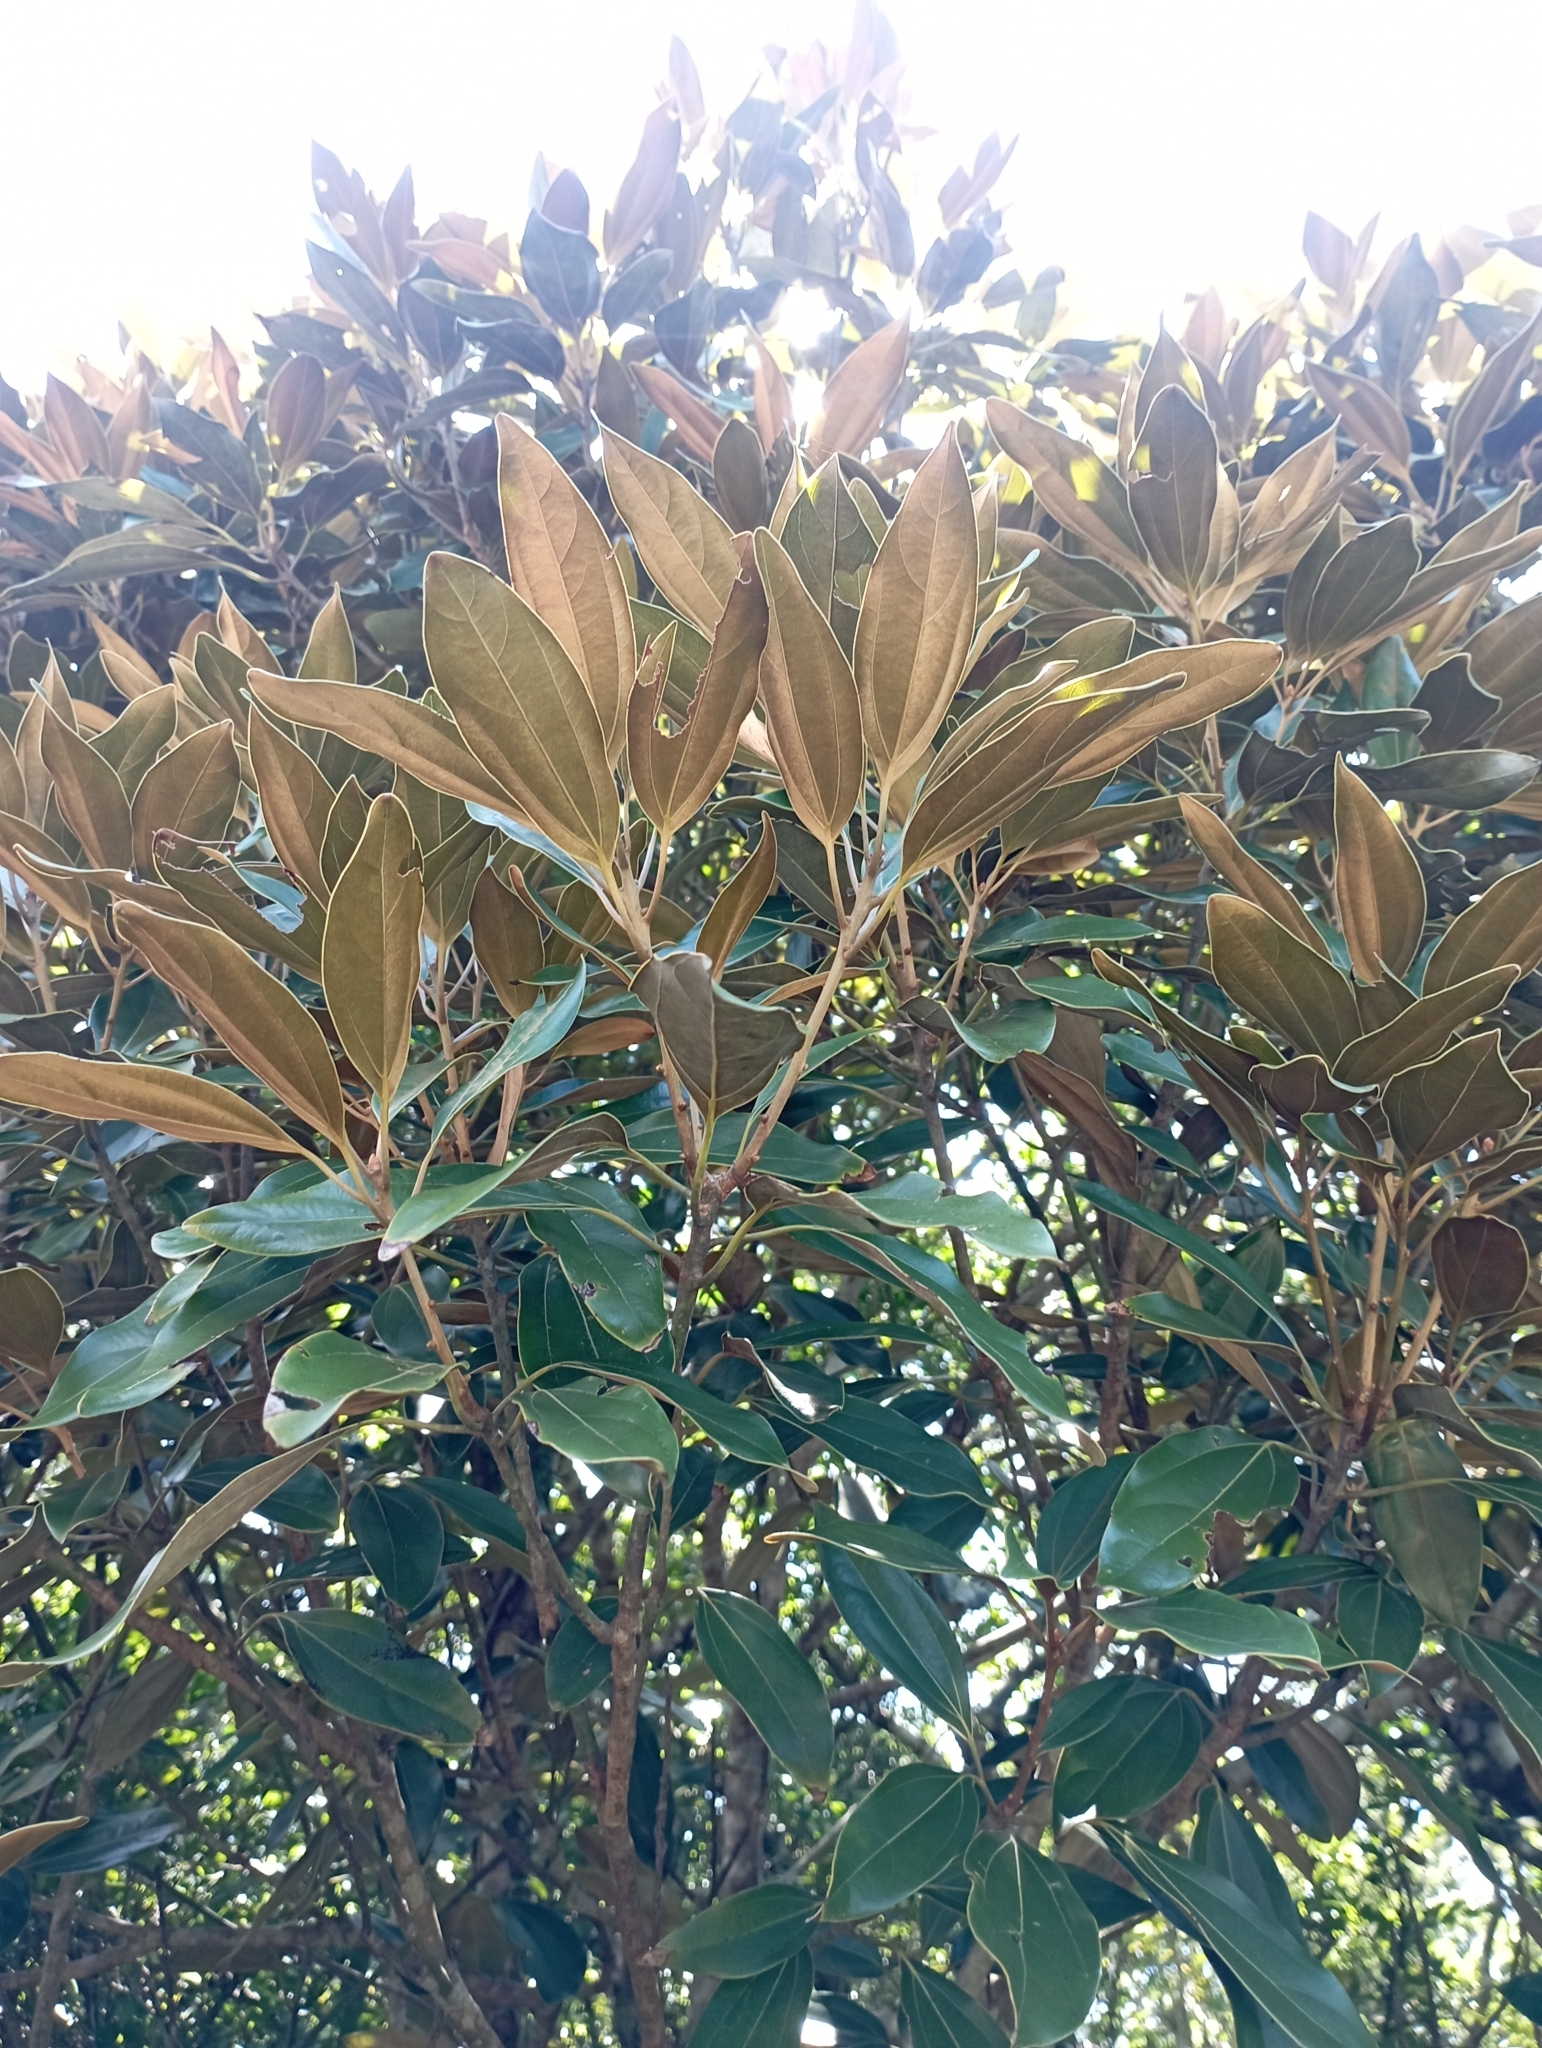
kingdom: Plantae
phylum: Tracheophyta
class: Magnoliopsida
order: Laurales
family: Lauraceae
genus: Neolitsea
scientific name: Neolitsea aurata
